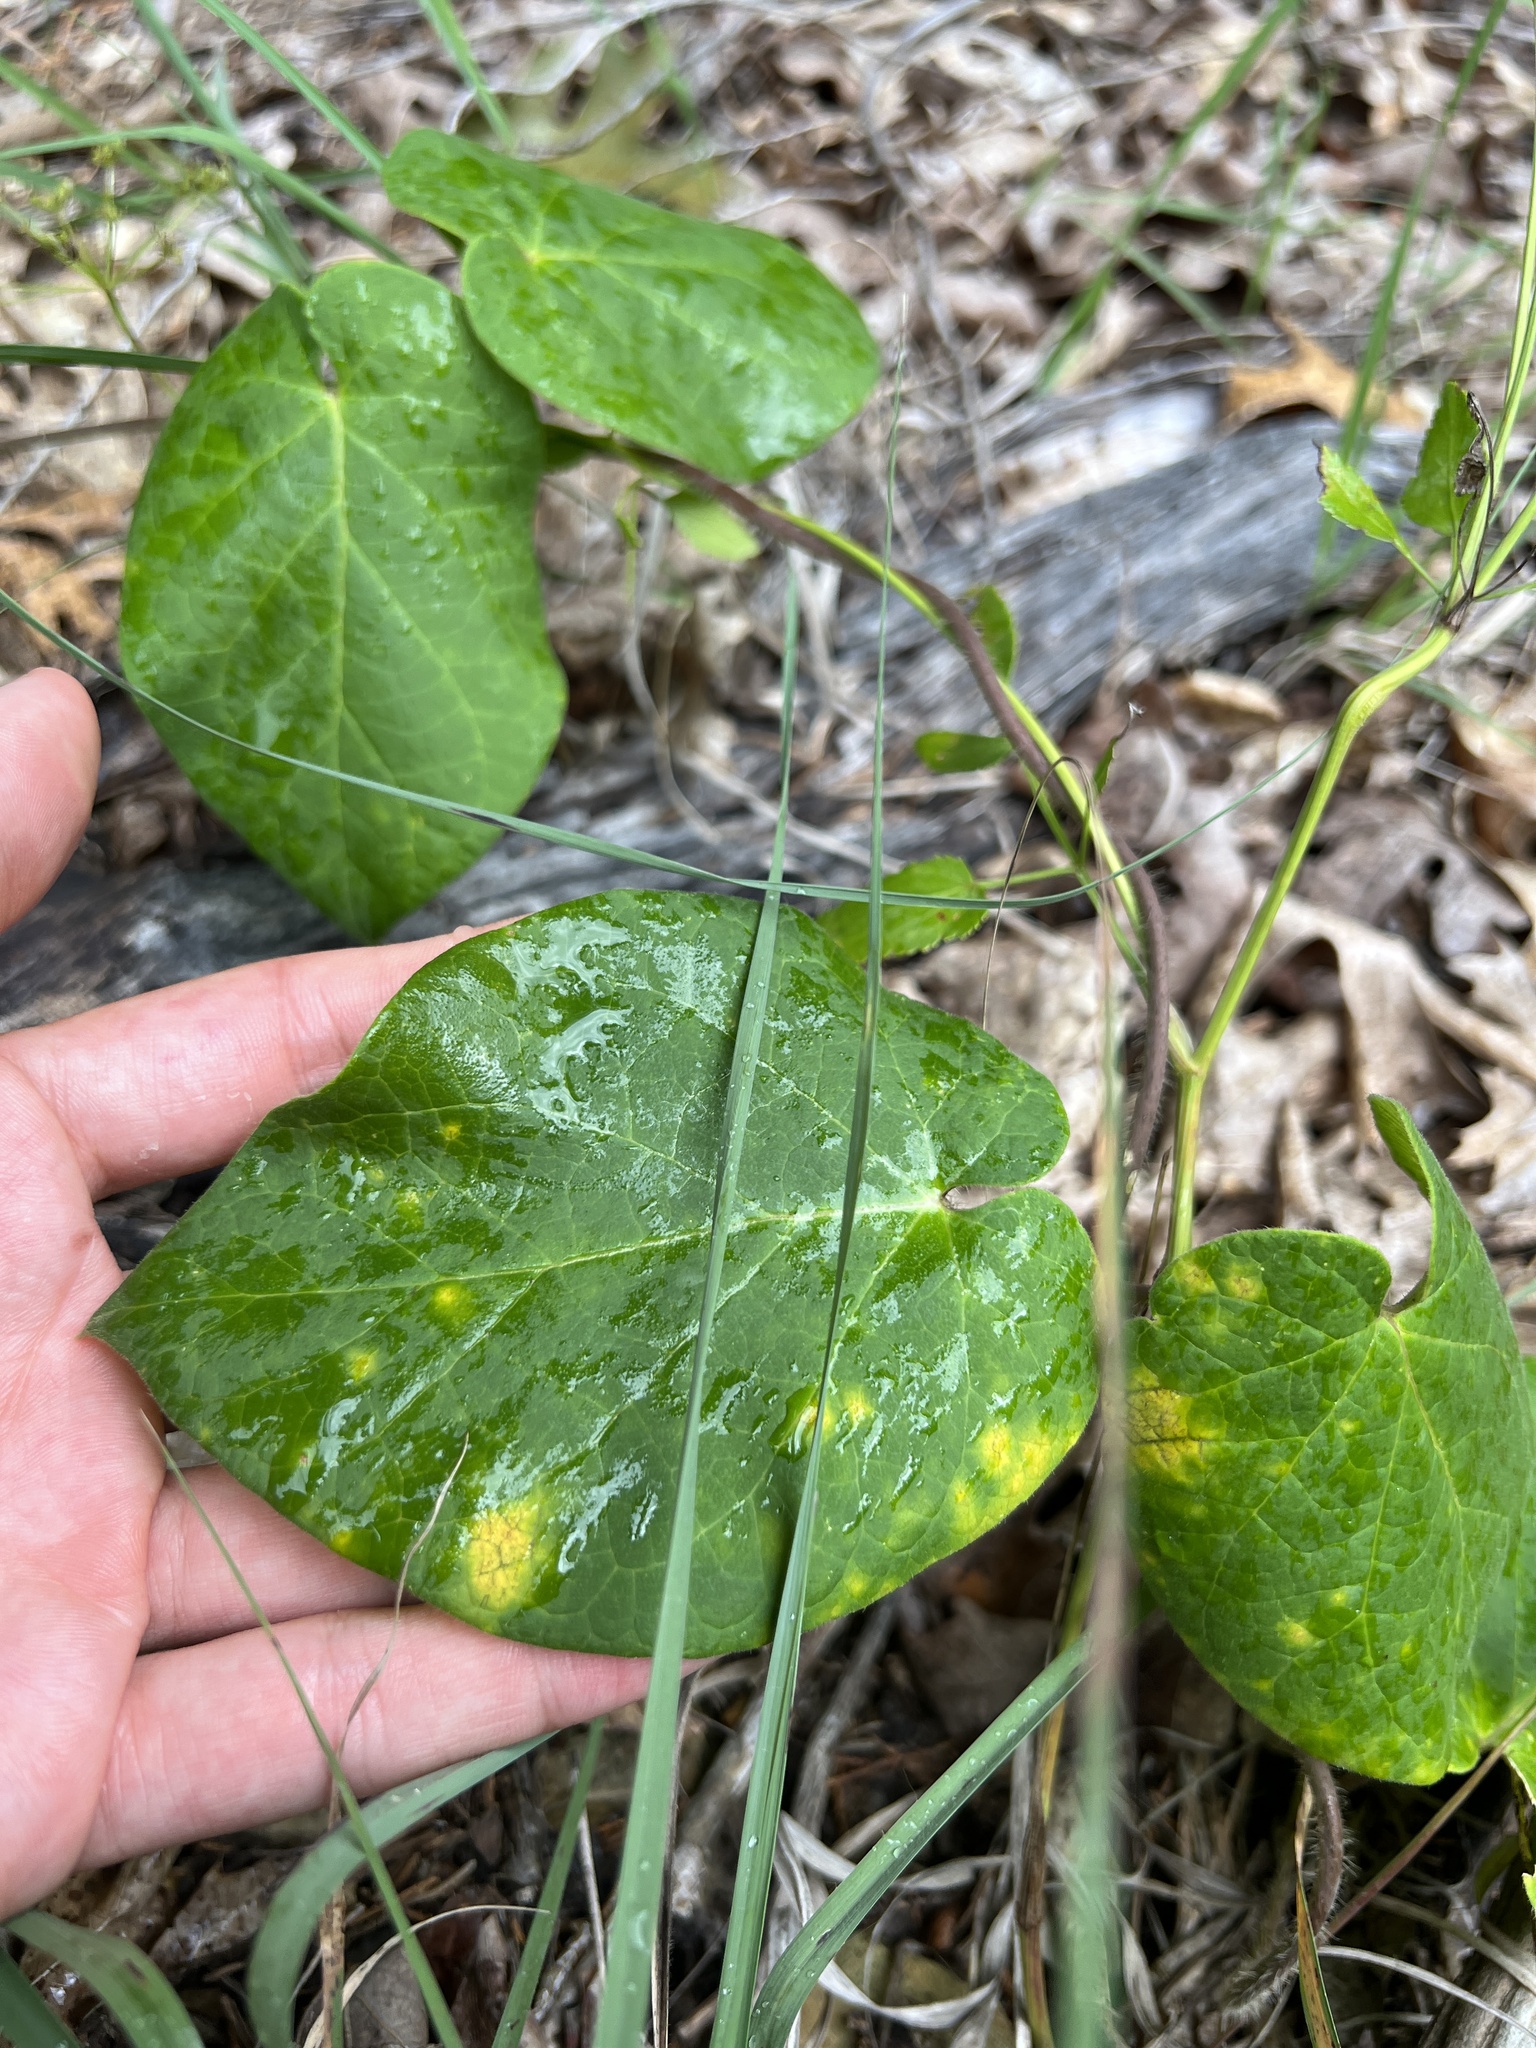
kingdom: Plantae
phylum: Tracheophyta
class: Magnoliopsida
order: Gentianales
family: Apocynaceae
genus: Matelea
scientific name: Matelea decipiens
